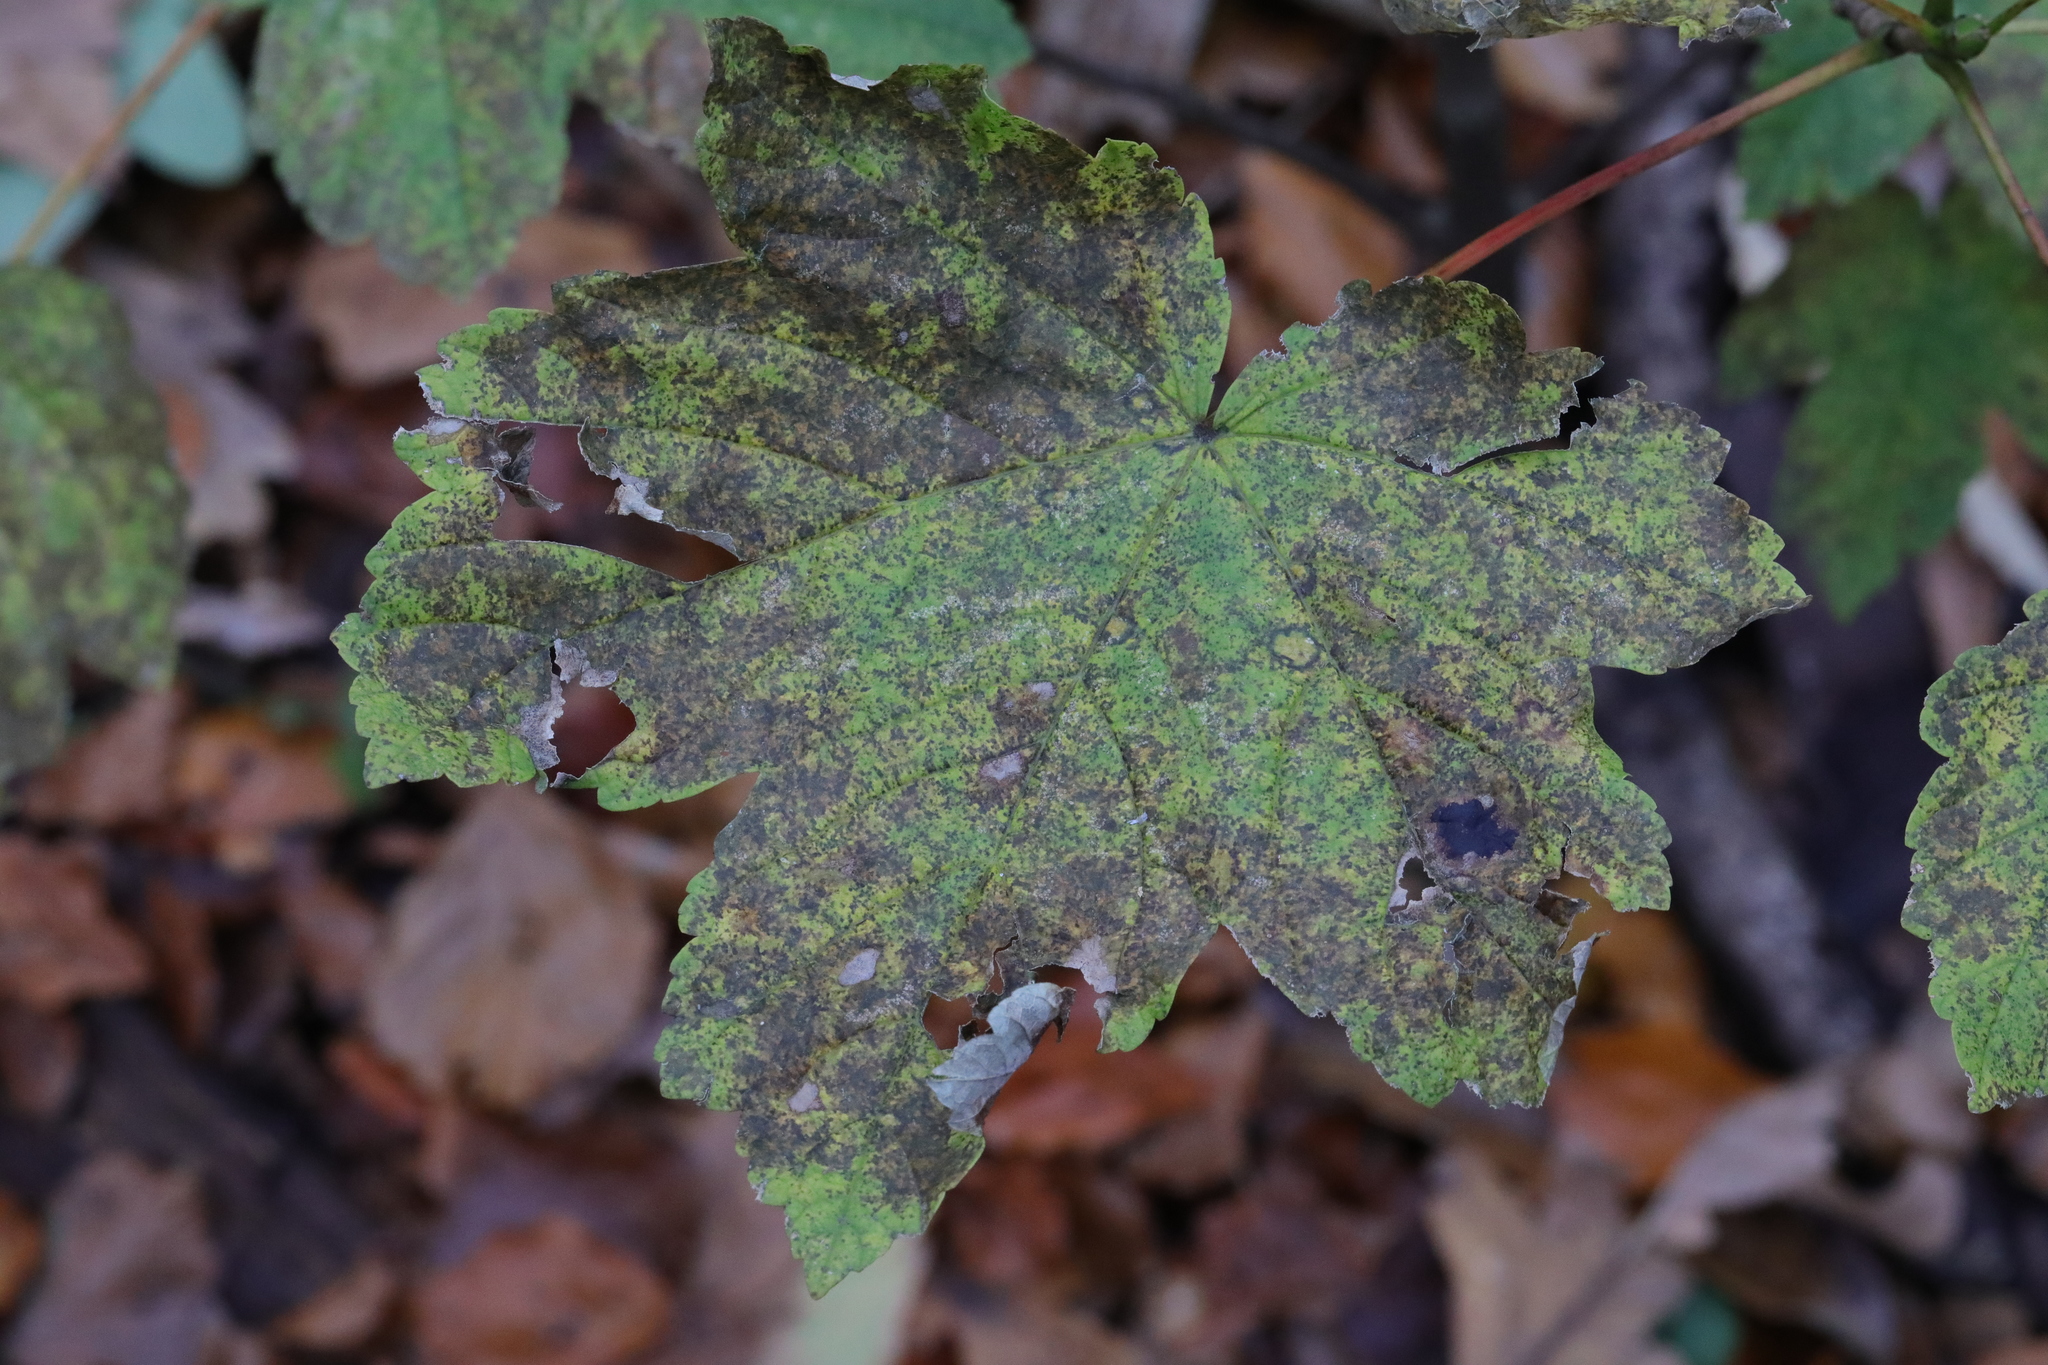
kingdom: Fungi
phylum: Ascomycota
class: Leotiomycetes
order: Rhytismatales
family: Rhytismataceae
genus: Rhytisma
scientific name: Rhytisma acerinum
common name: European tar spot
